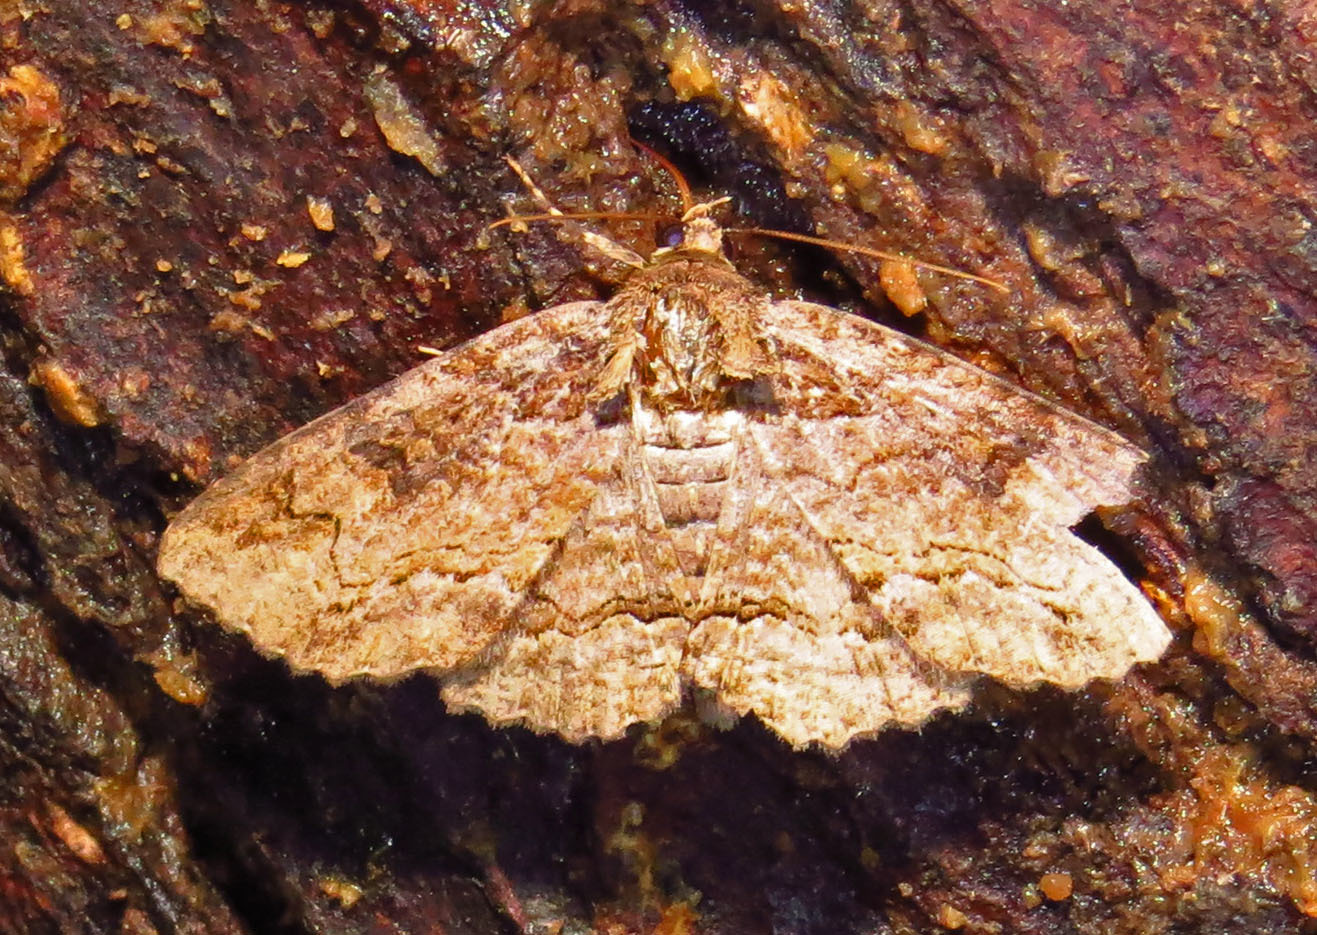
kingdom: Animalia
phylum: Arthropoda
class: Insecta
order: Lepidoptera
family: Erebidae
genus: Zale
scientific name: Zale galbanata
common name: Maple zale
